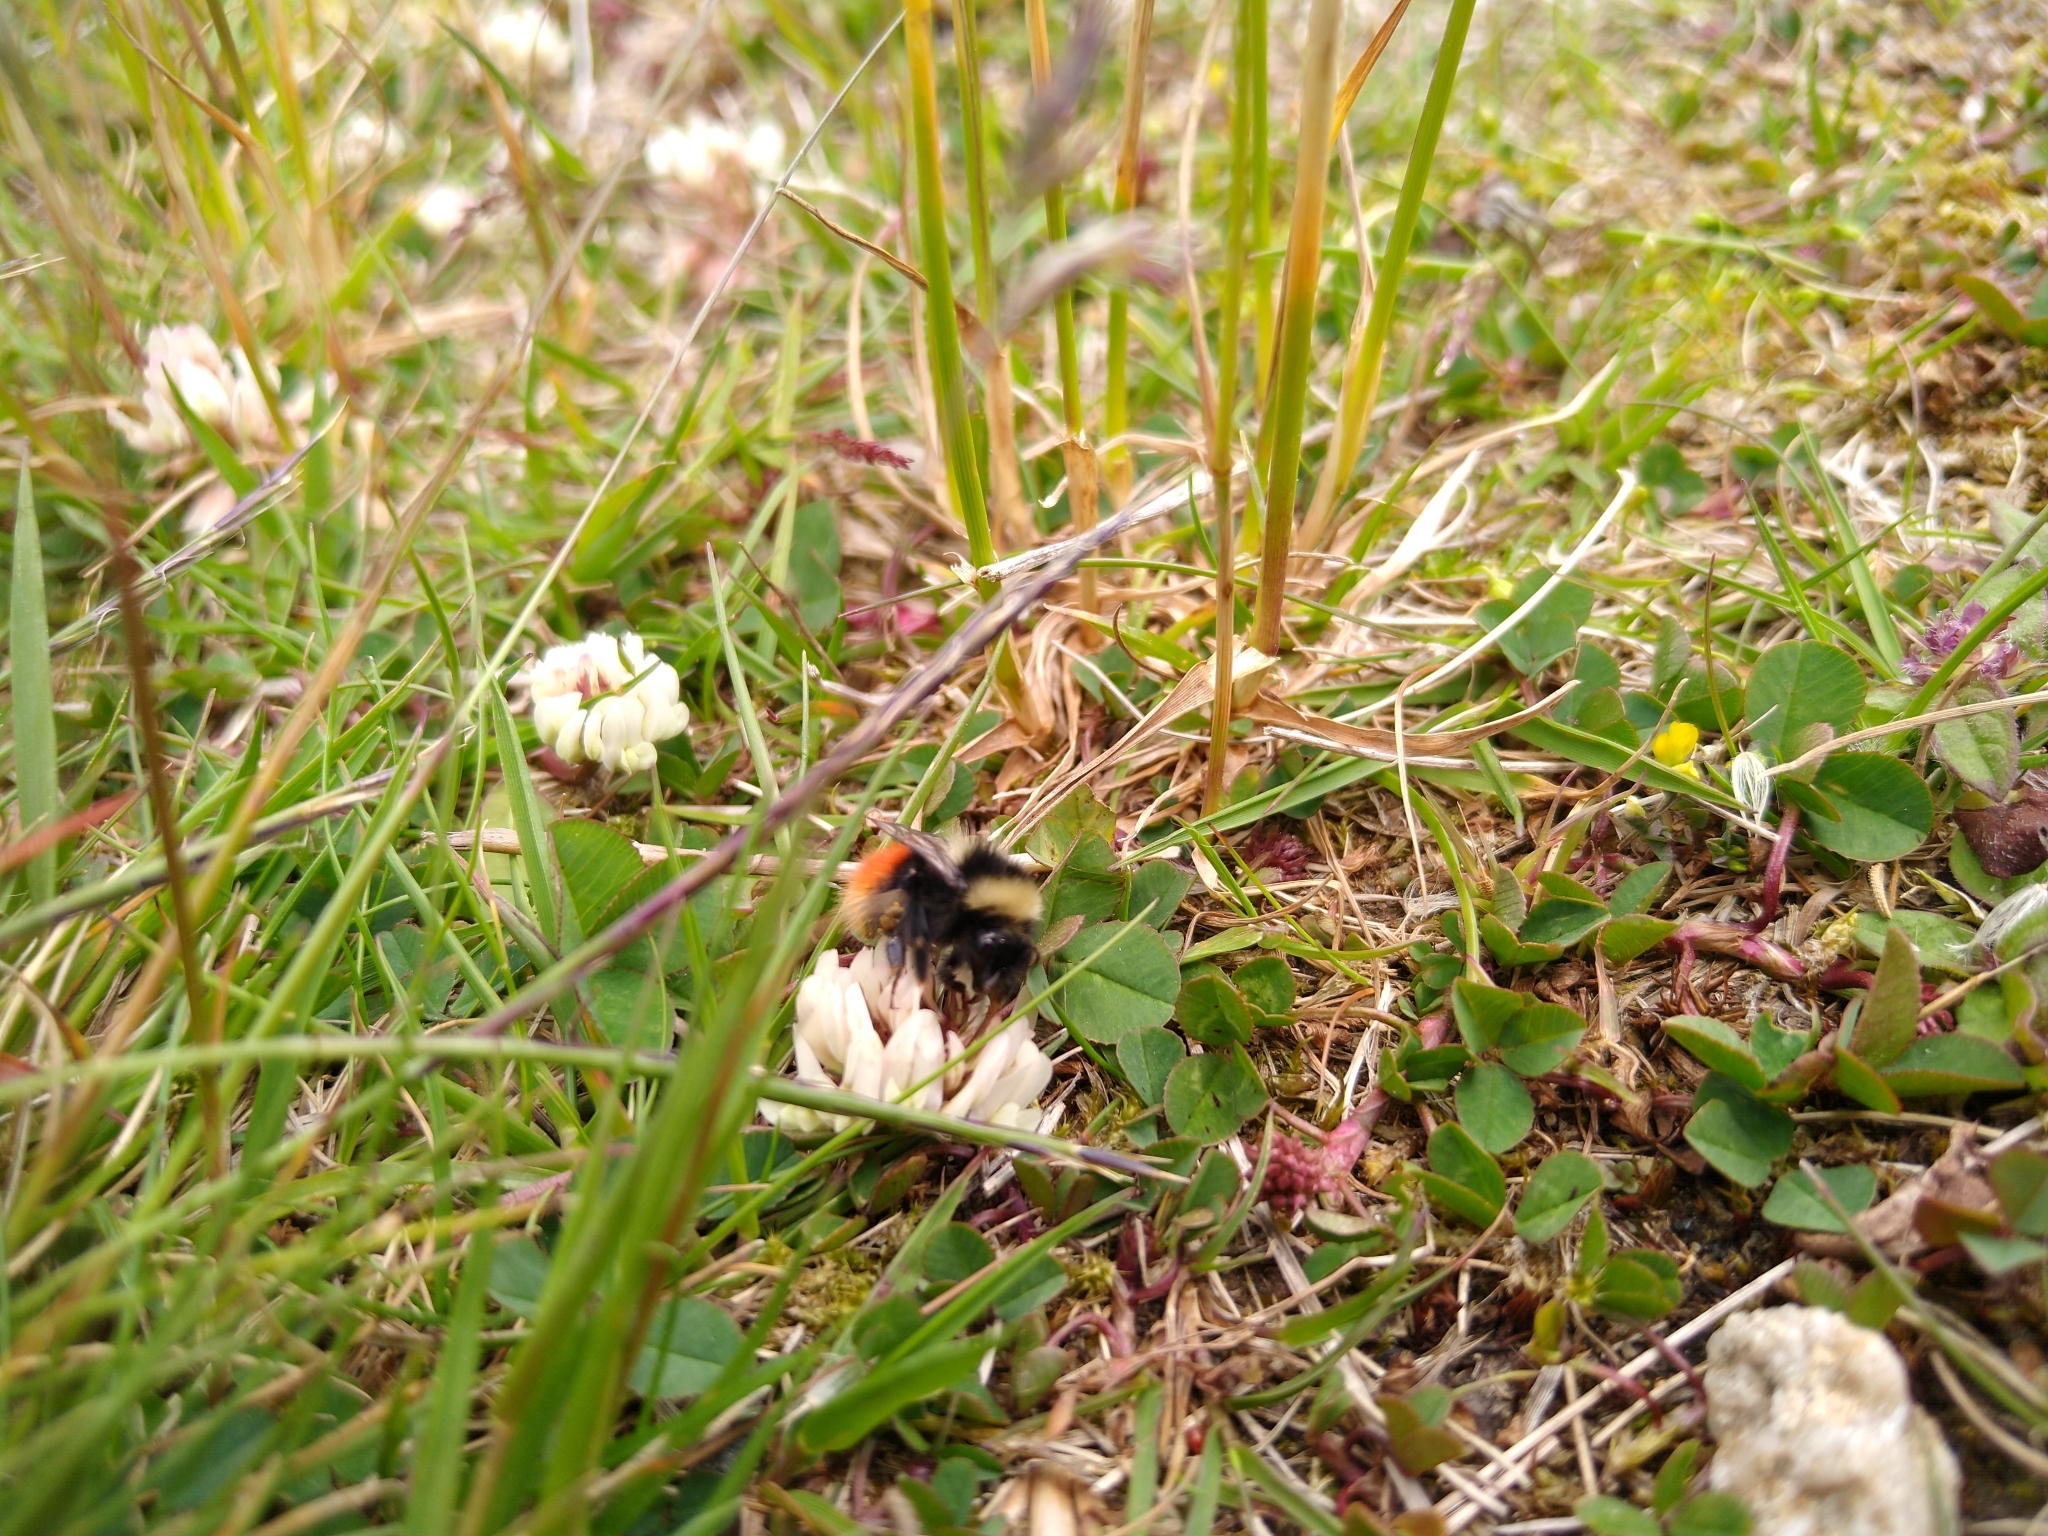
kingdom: Animalia
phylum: Arthropoda
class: Insecta
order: Hymenoptera
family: Apidae
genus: Bombus
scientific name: Bombus monticola
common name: Bilberry humble-bee
